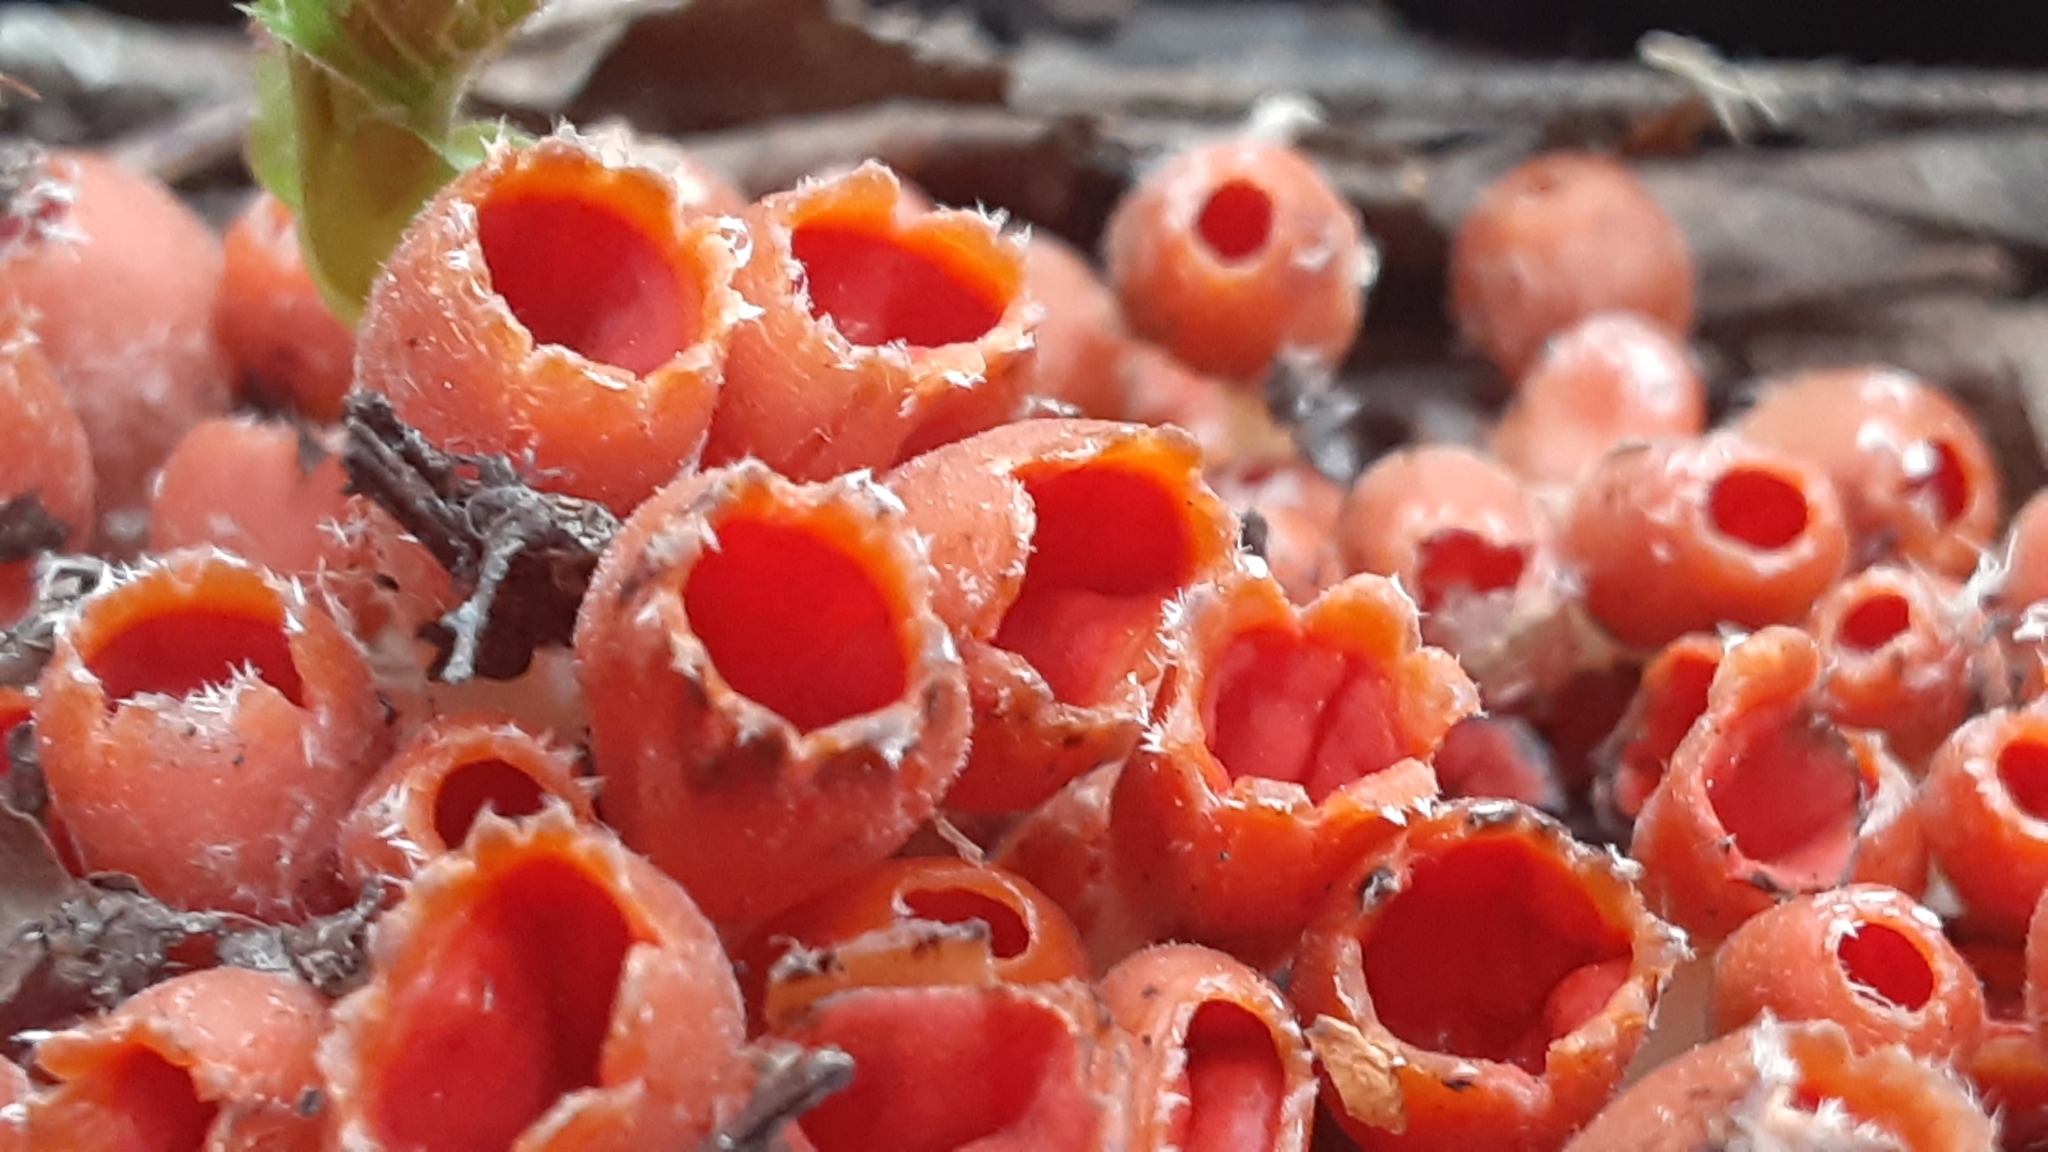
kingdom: Fungi
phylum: Ascomycota
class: Pezizomycetes
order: Pezizales
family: Sarcoscyphaceae
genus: Microstoma
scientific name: Microstoma protractum
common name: Rosy goblet
